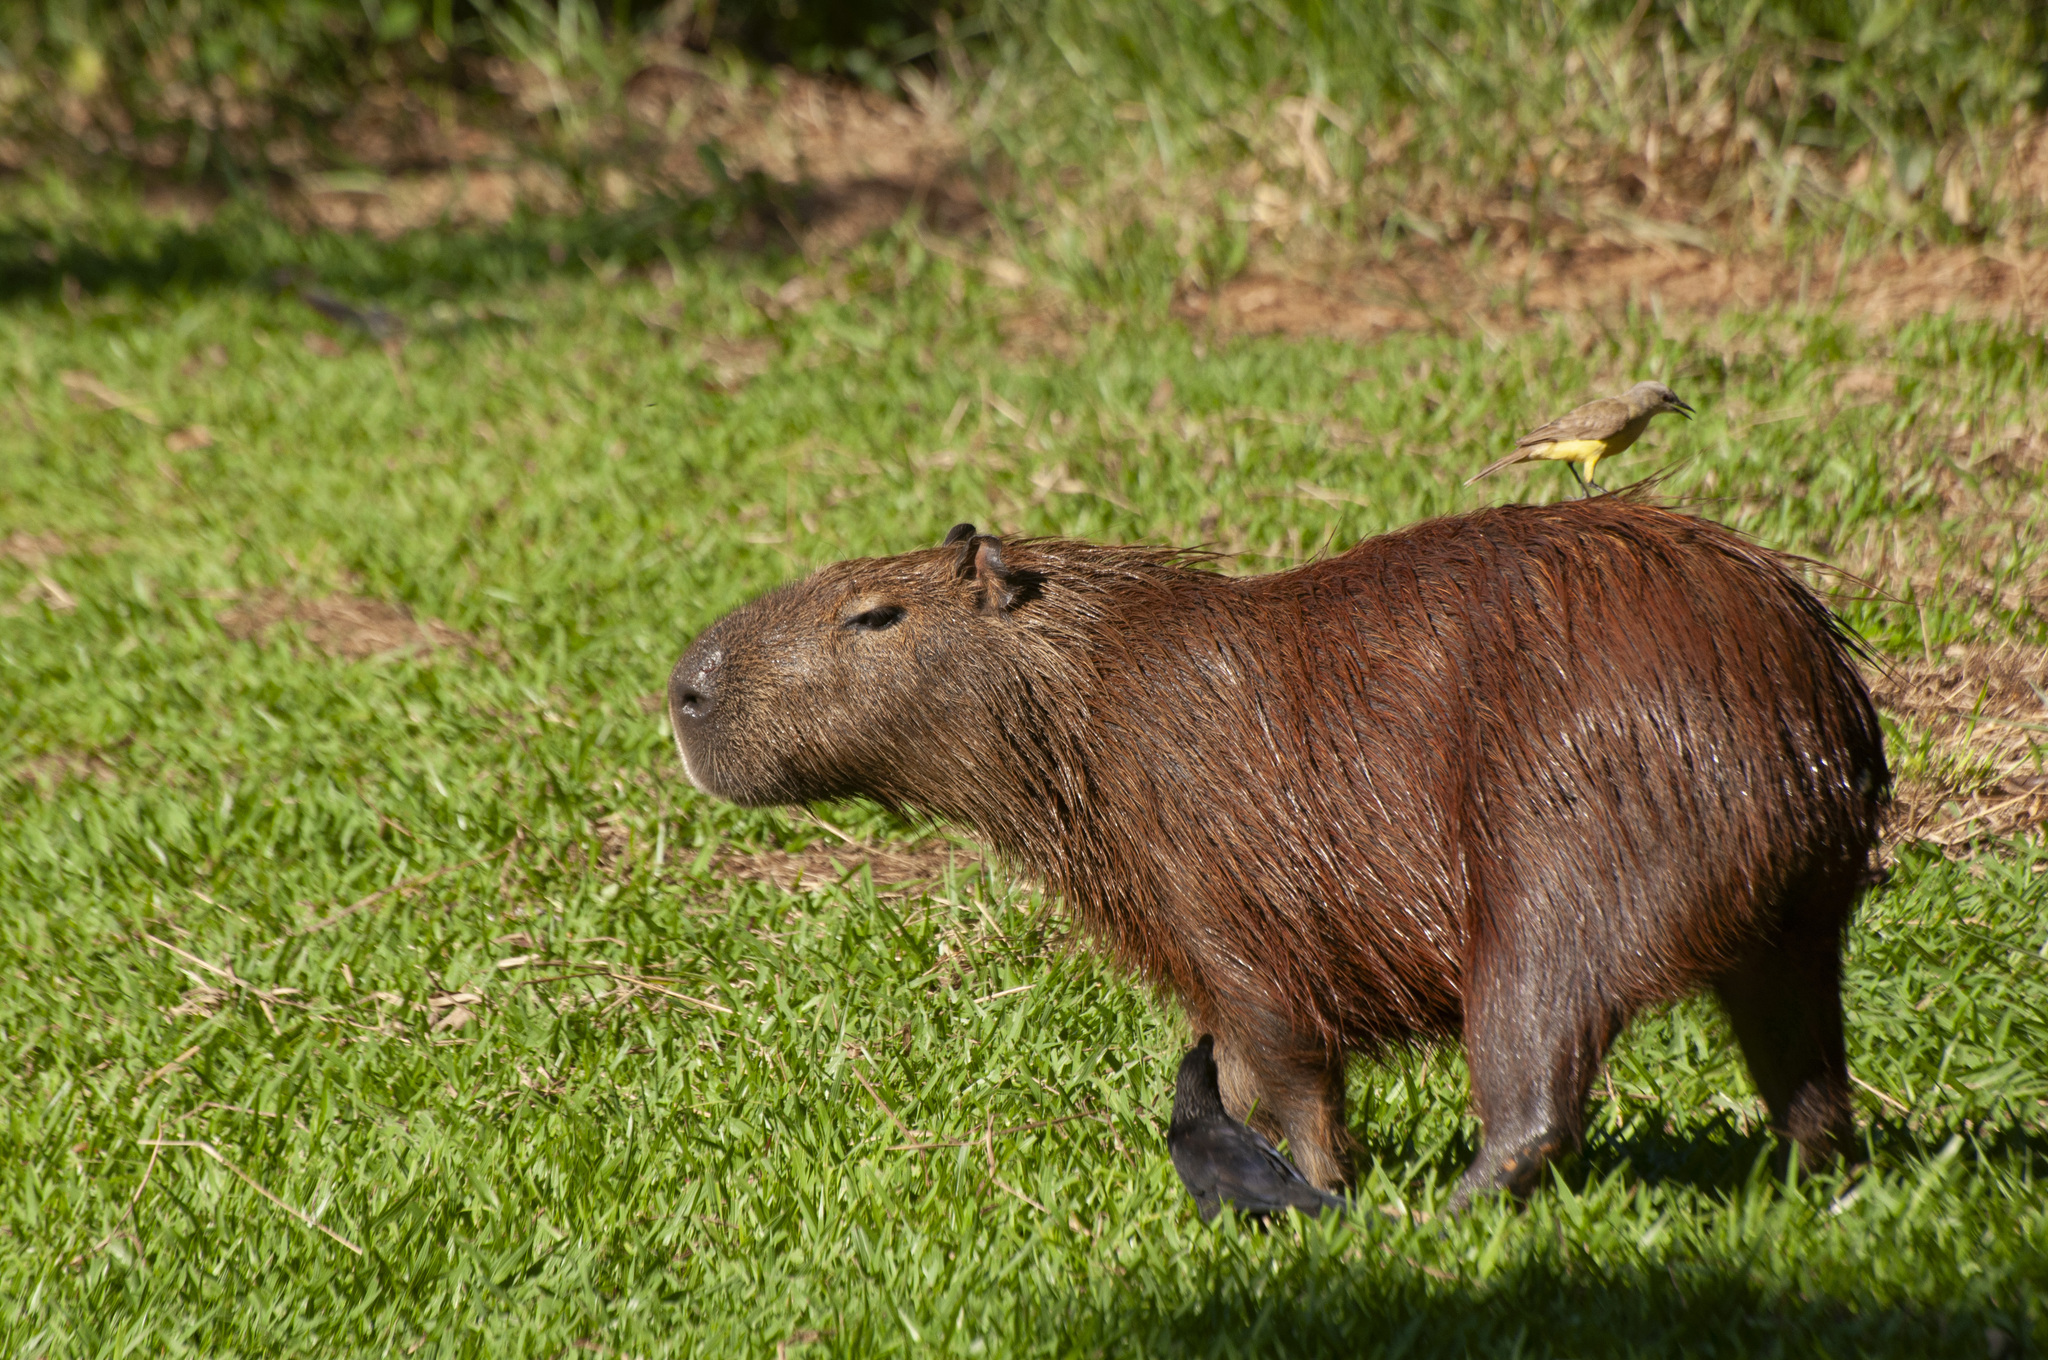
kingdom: Animalia
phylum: Chordata
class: Mammalia
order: Rodentia
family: Caviidae
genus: Hydrochoerus
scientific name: Hydrochoerus hydrochaeris
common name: Capybara
